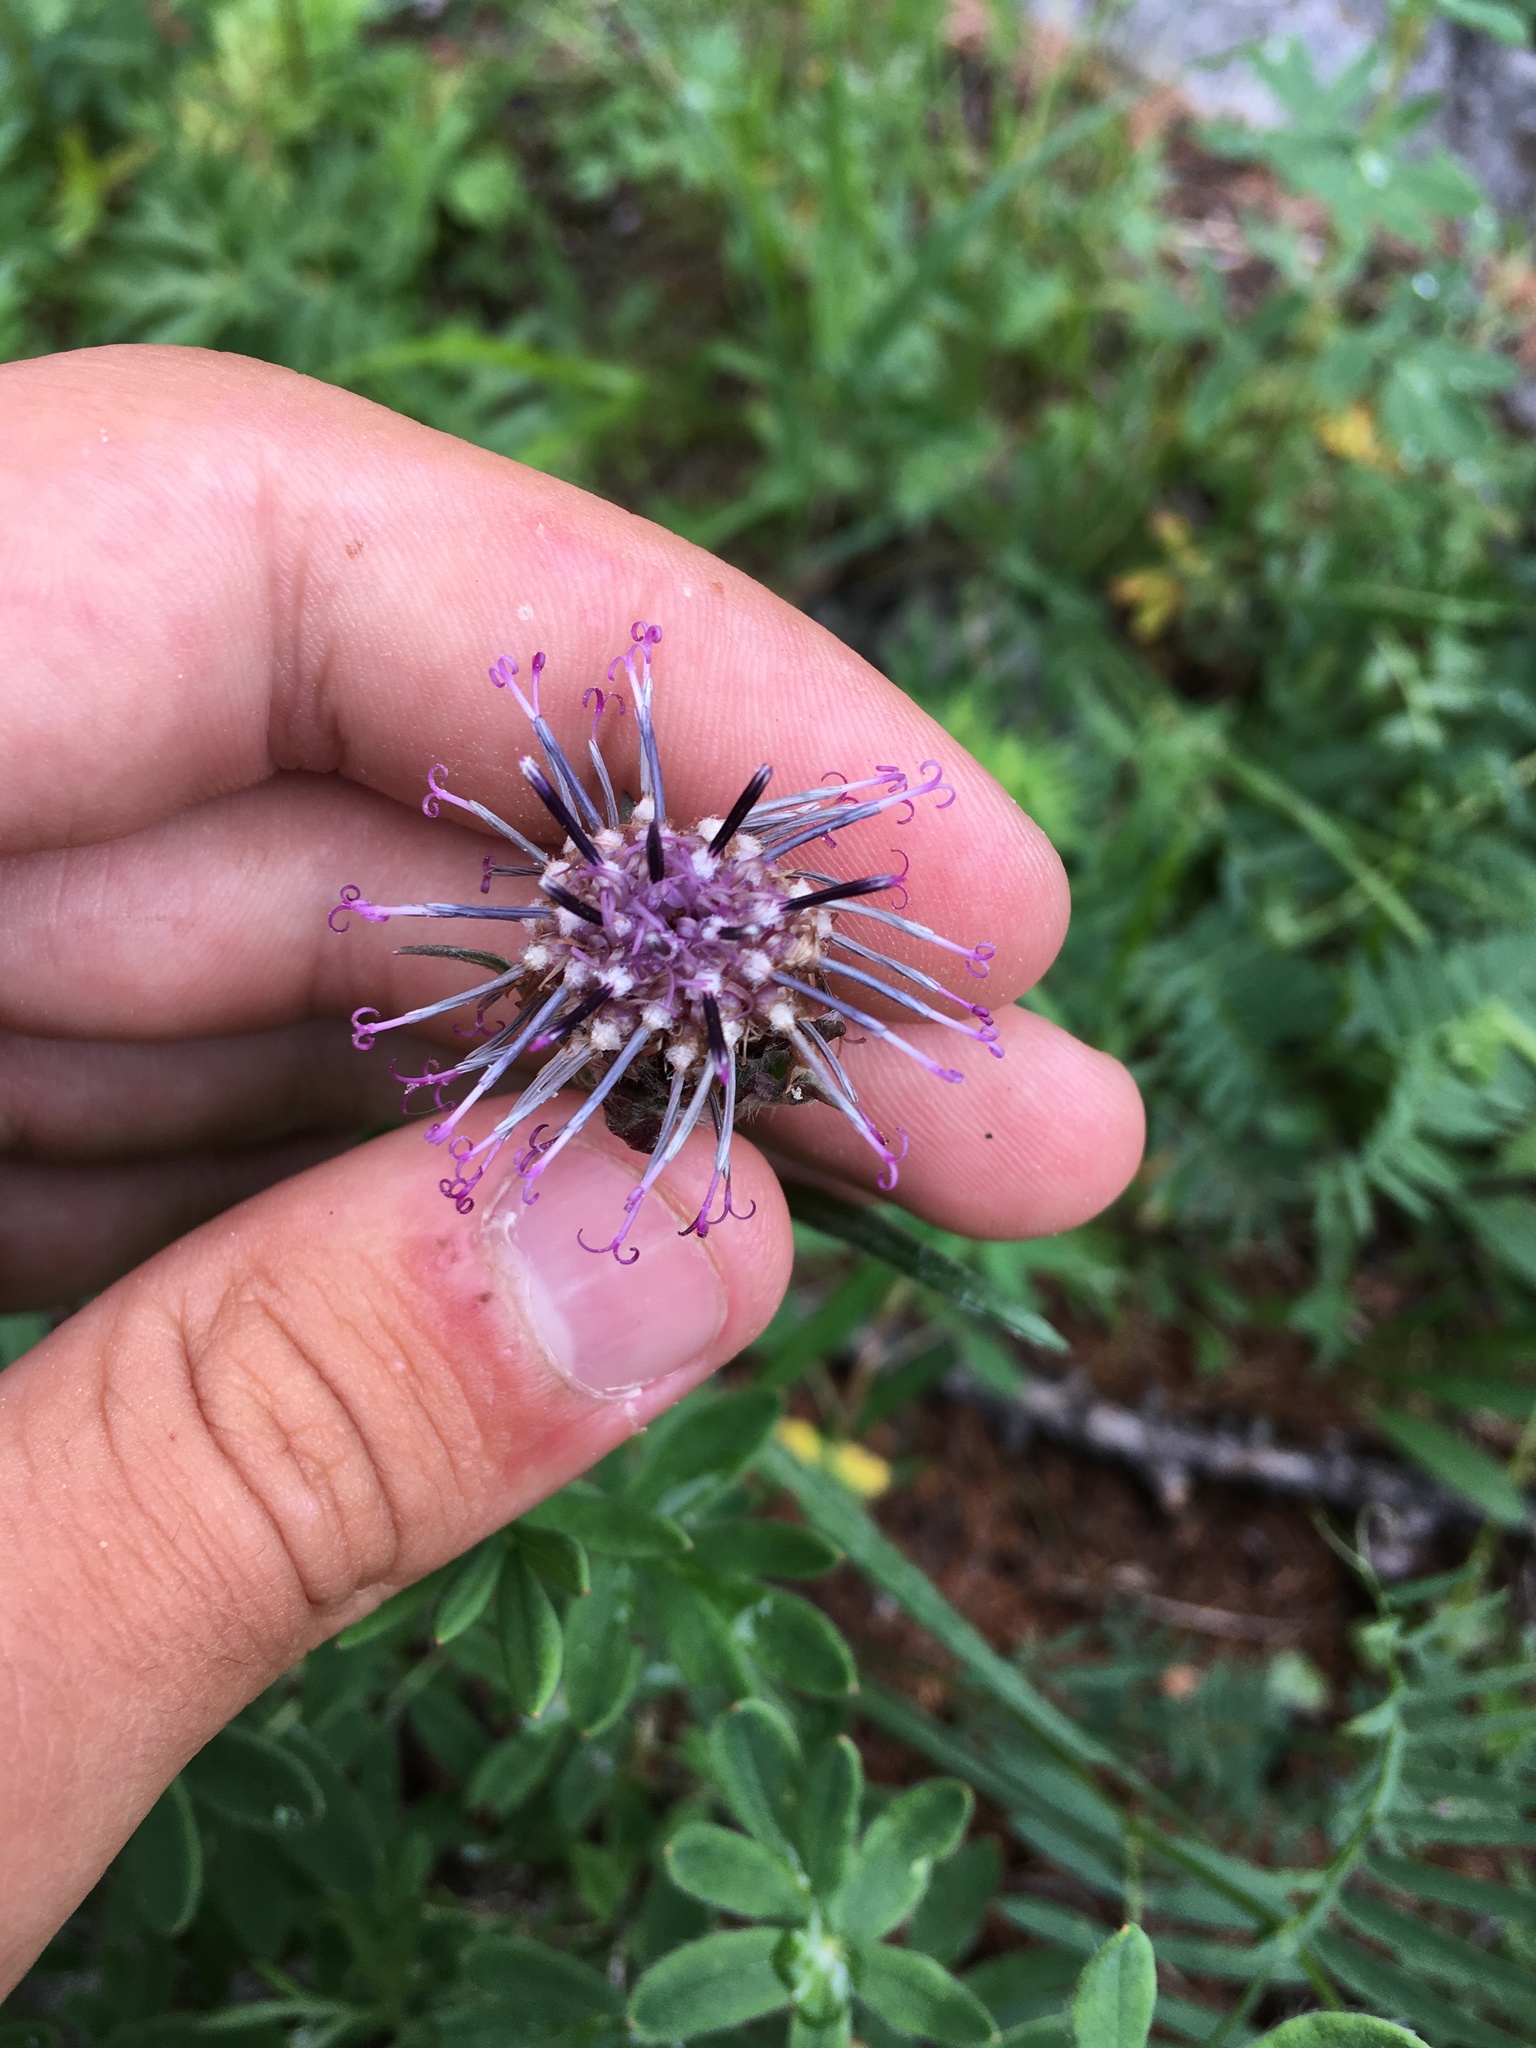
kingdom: Plantae
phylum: Tracheophyta
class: Magnoliopsida
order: Asterales
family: Asteraceae
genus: Saussurea
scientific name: Saussurea schanginiana
